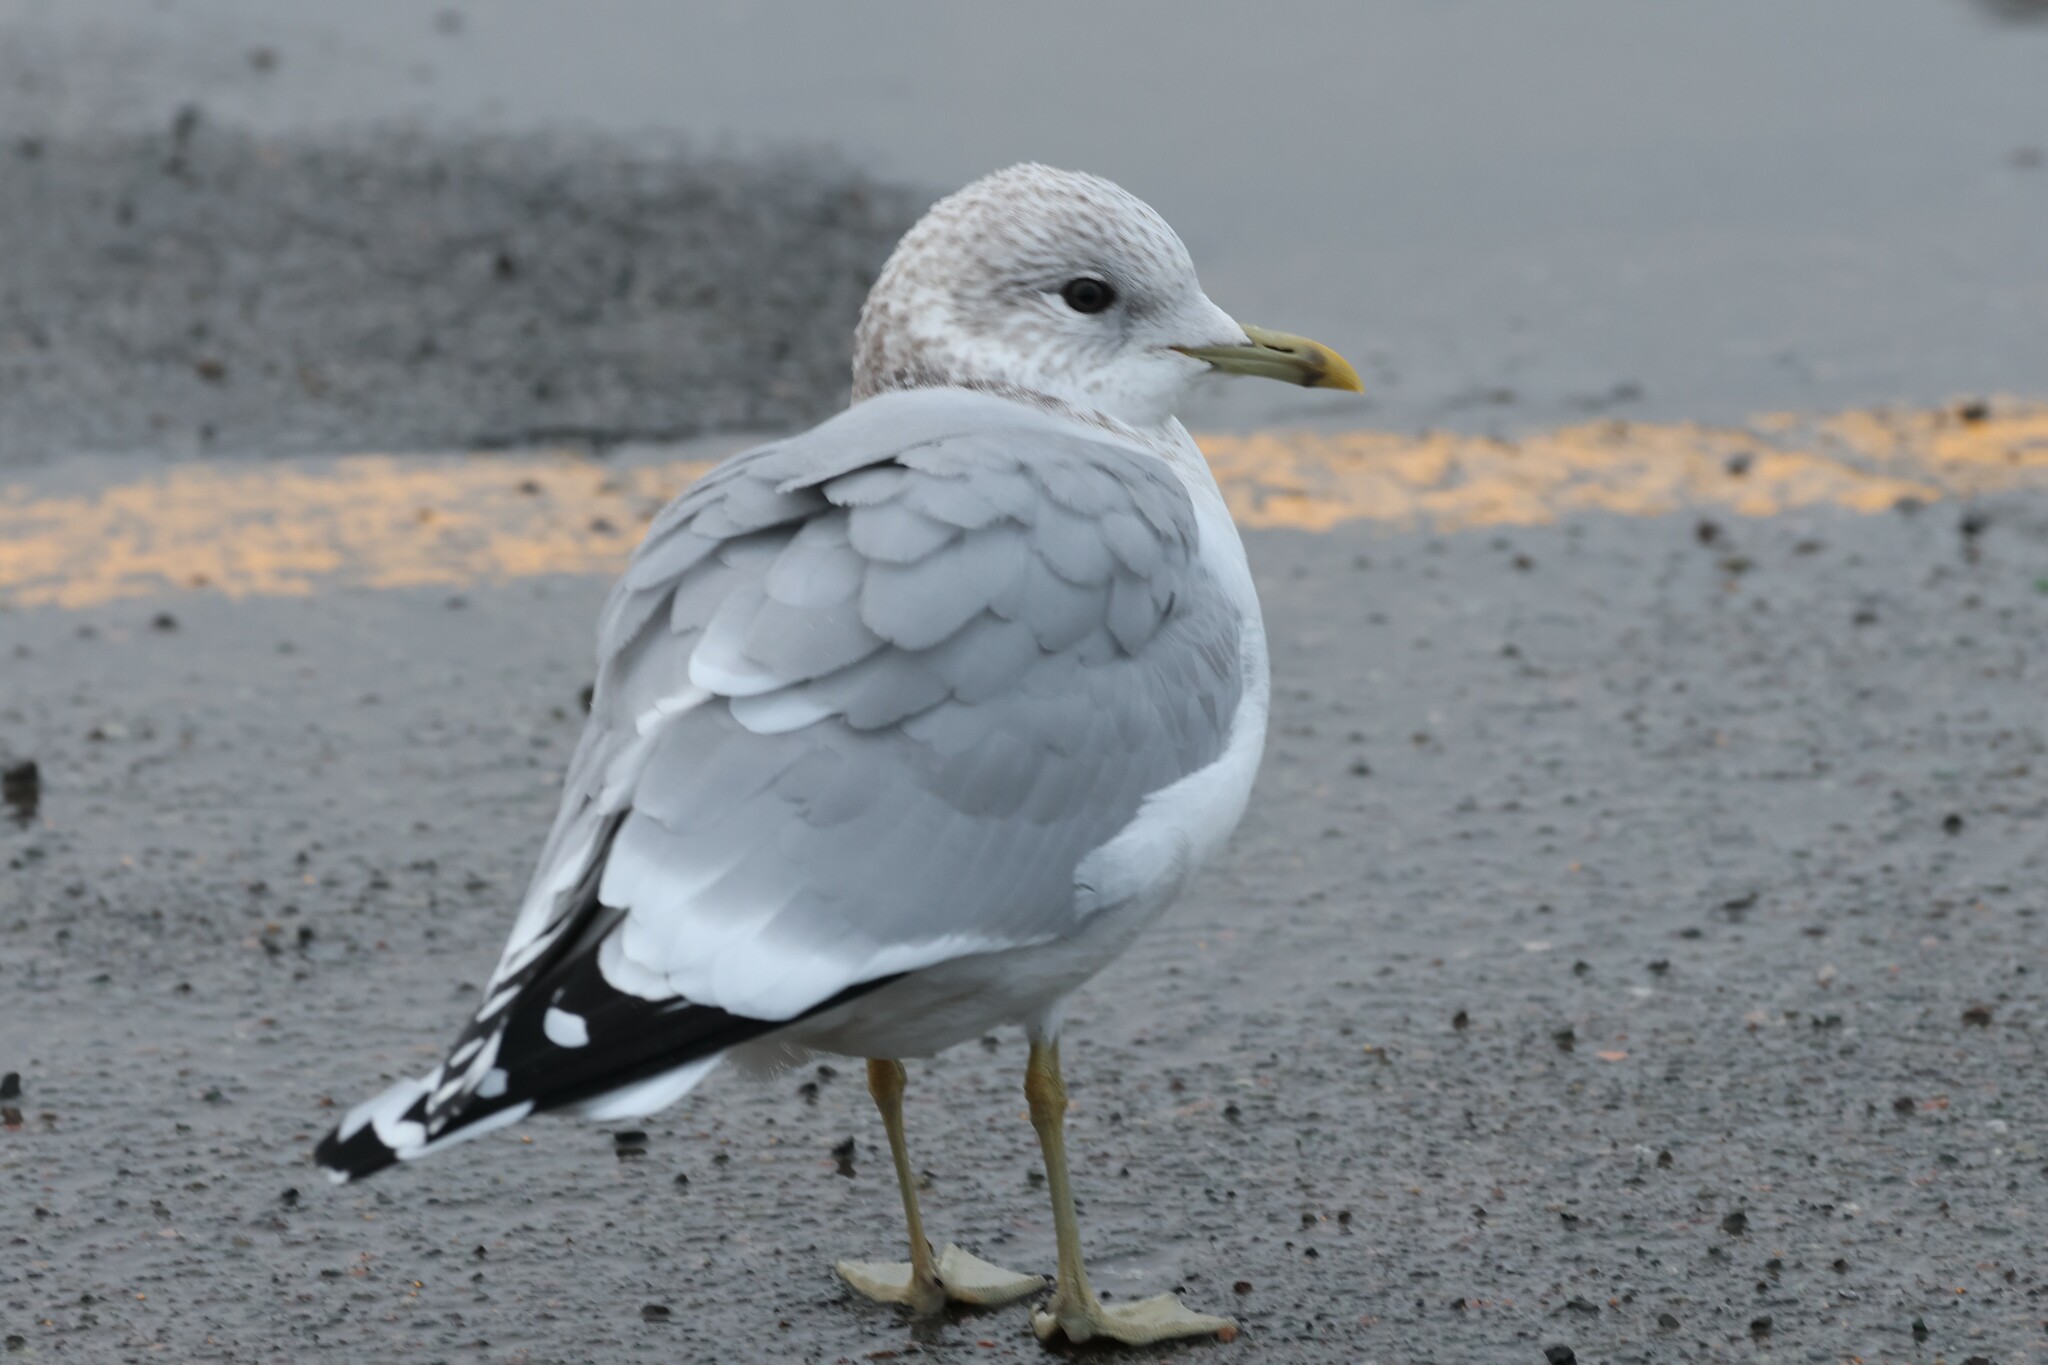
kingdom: Animalia
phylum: Chordata
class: Aves
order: Charadriiformes
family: Laridae
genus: Larus
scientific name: Larus canus
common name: Mew gull
